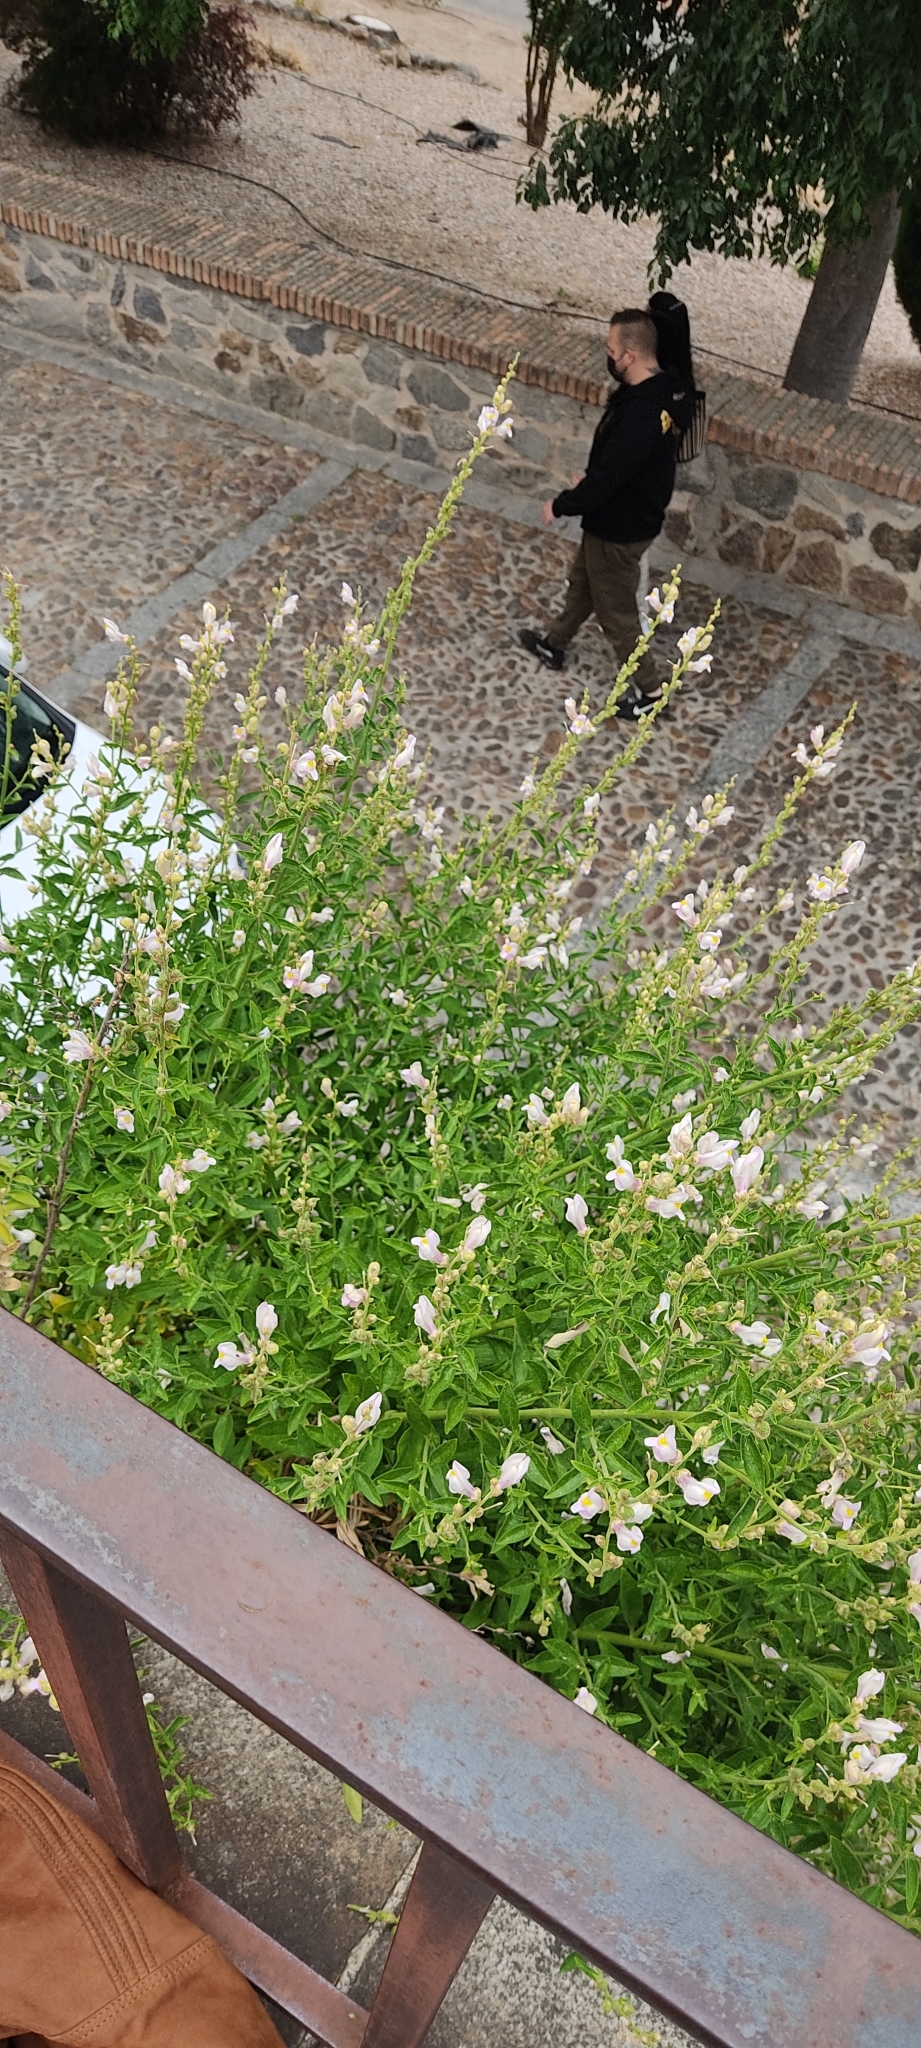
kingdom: Plantae
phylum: Tracheophyta
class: Magnoliopsida
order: Lamiales
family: Plantaginaceae
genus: Antirrhinum
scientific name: Antirrhinum graniticum
